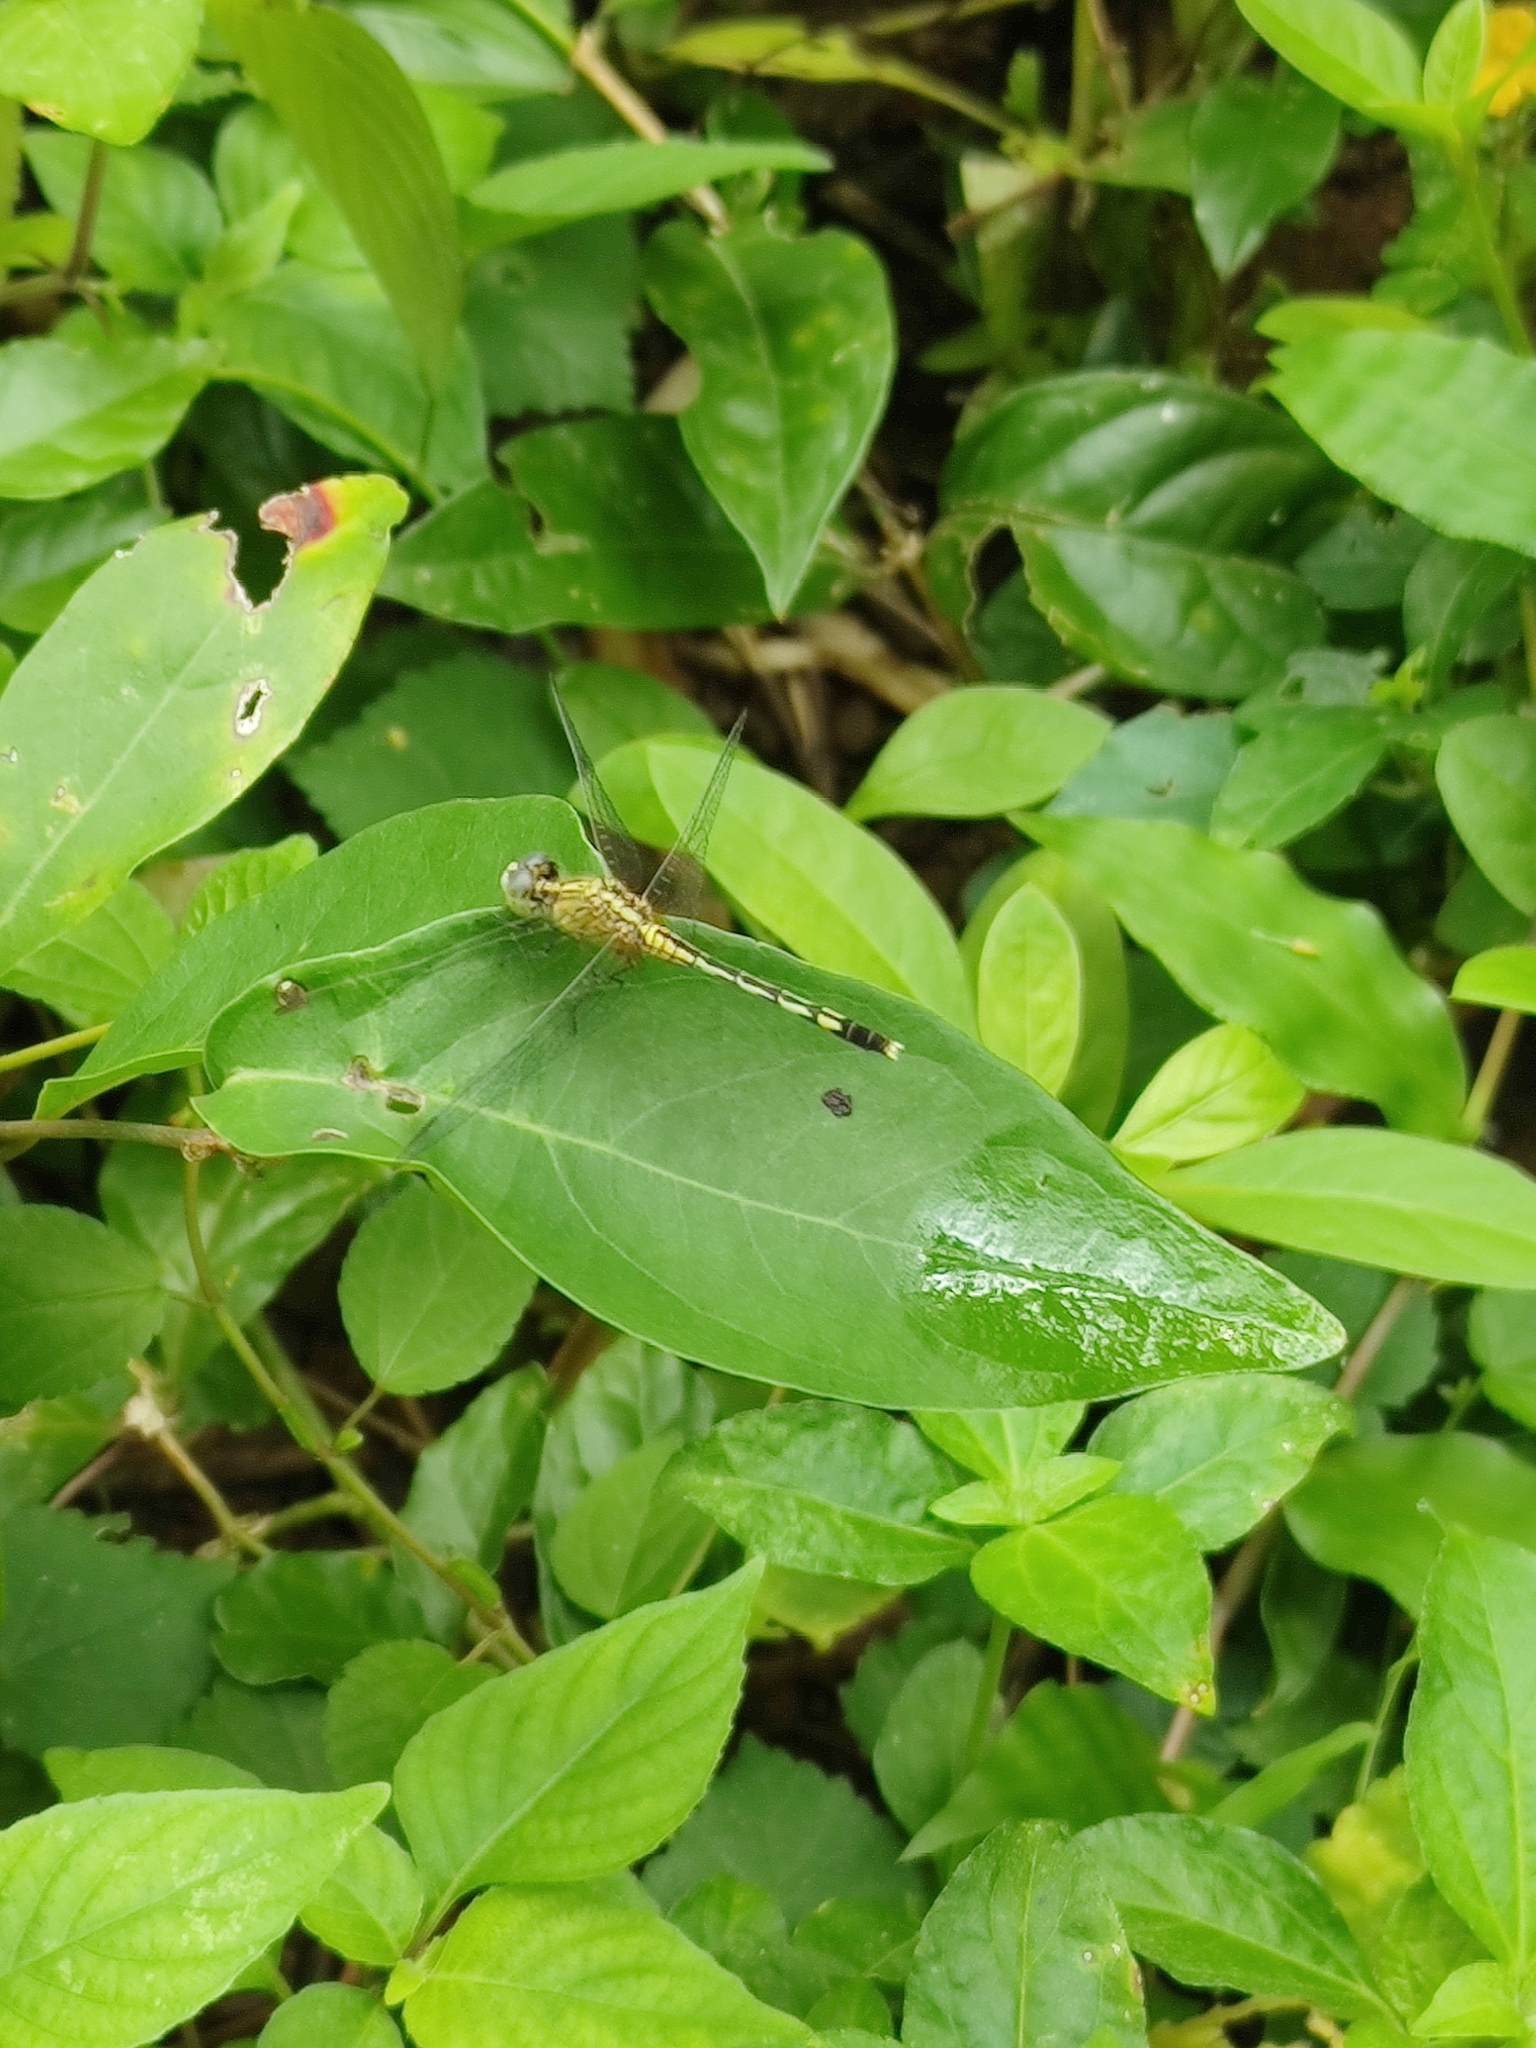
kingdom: Animalia
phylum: Arthropoda
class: Insecta
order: Odonata
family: Libellulidae
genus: Diplacodes
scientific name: Diplacodes trivialis
